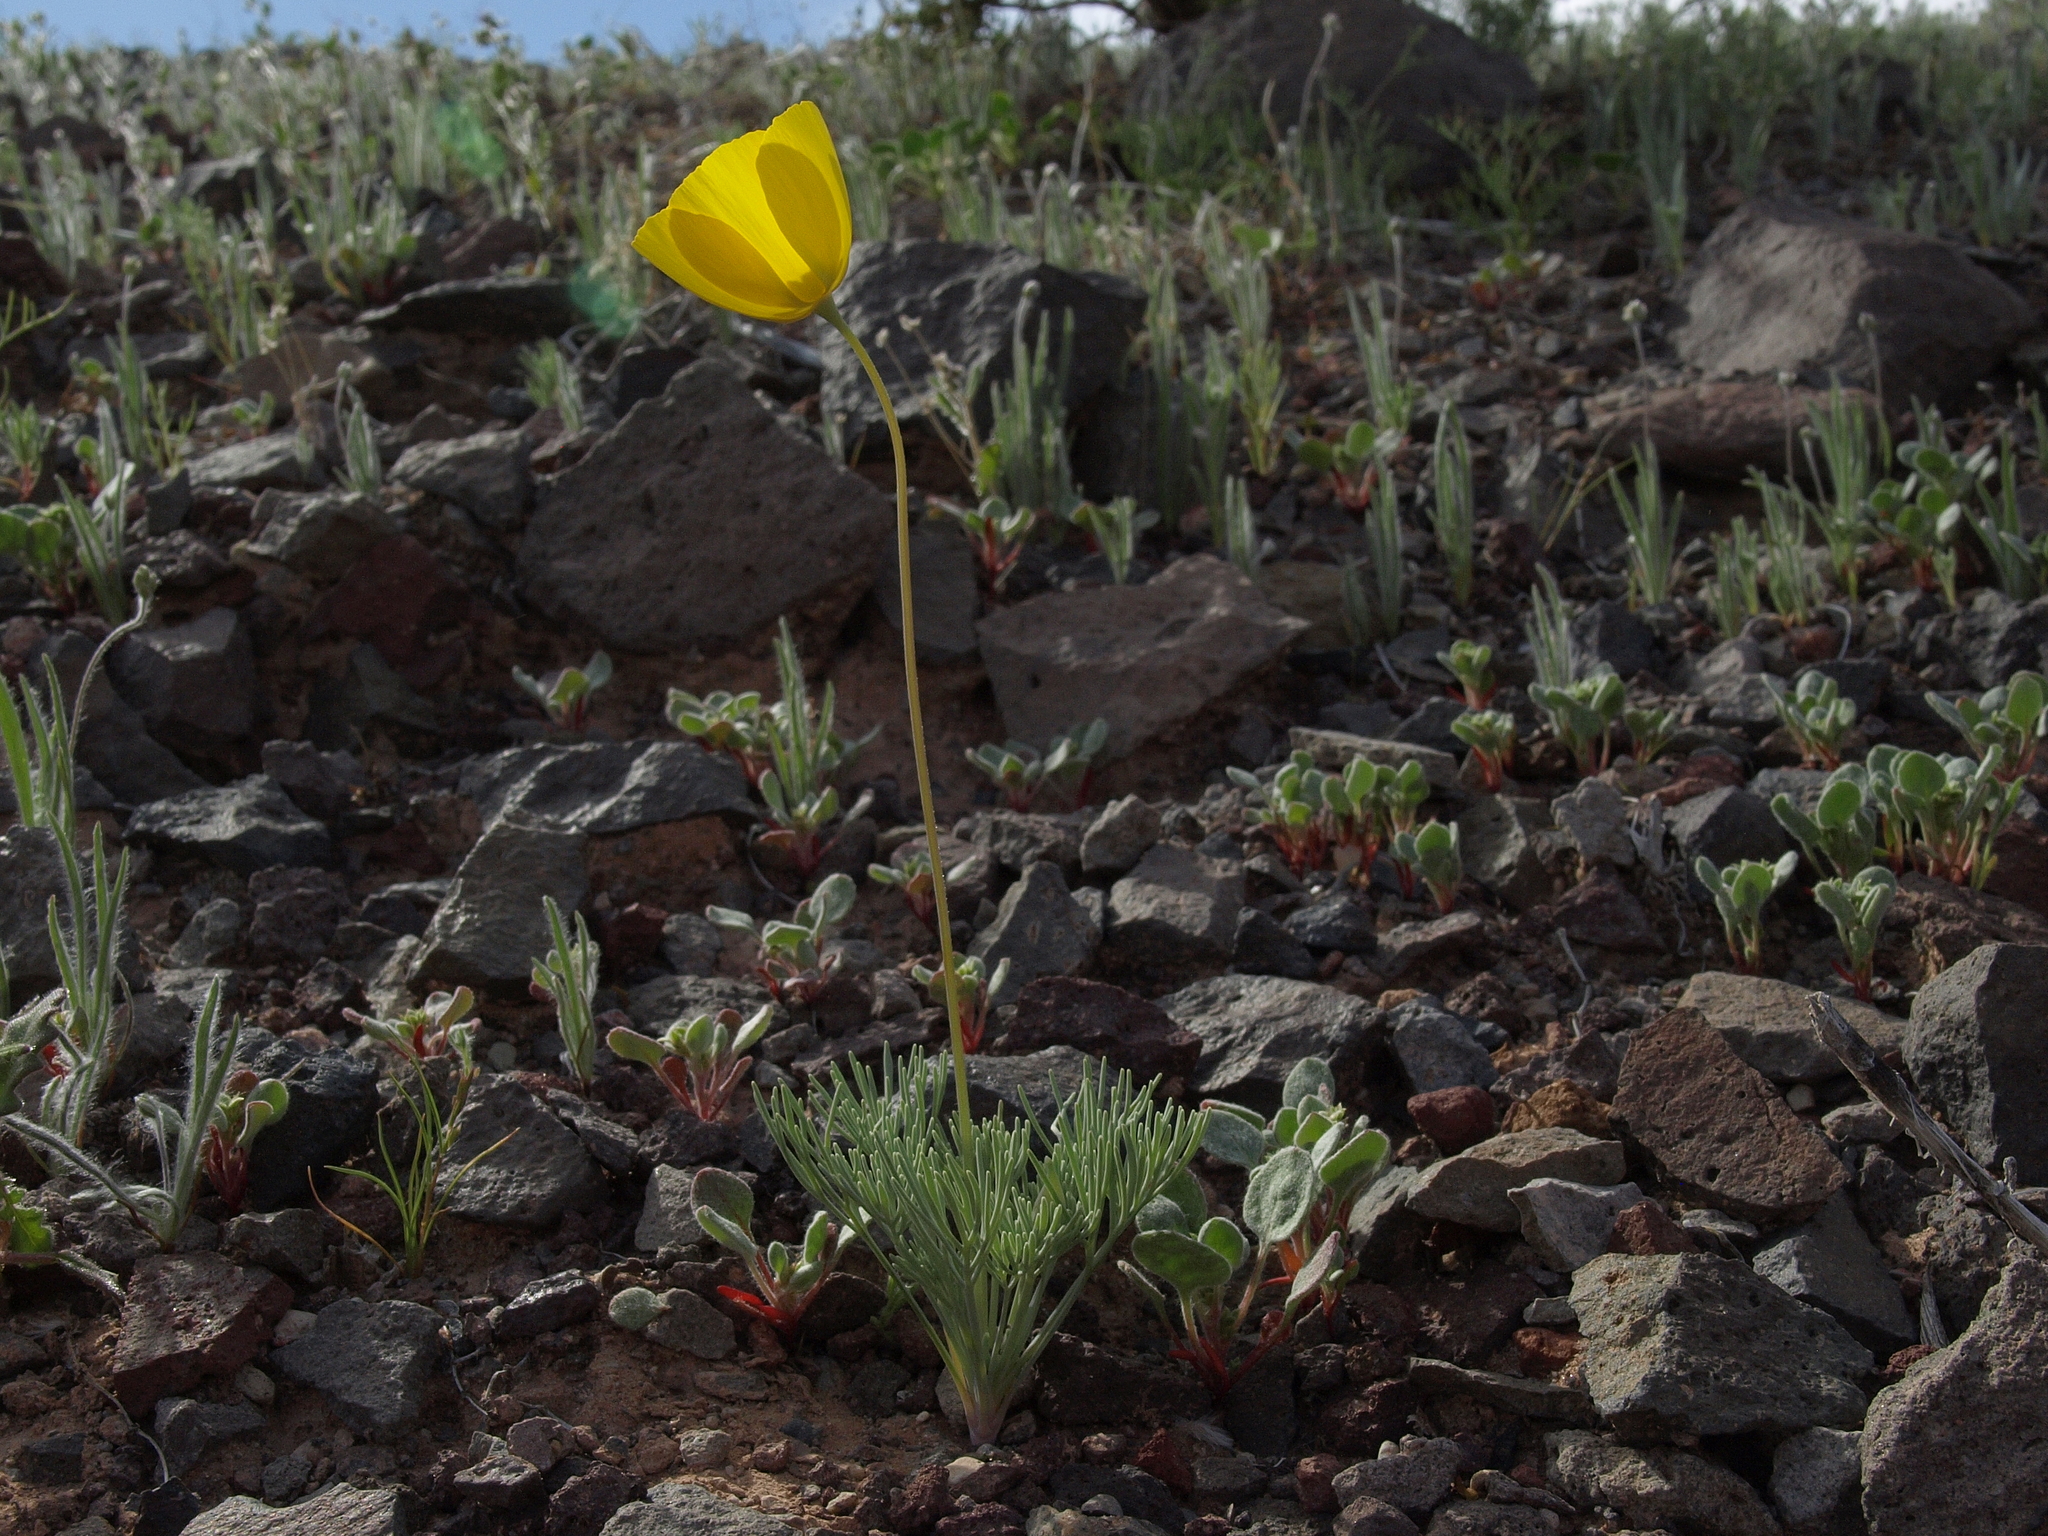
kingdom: Plantae
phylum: Tracheophyta
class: Magnoliopsida
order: Ranunculales
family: Papaveraceae
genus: Eschscholzia
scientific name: Eschscholzia glyptosperma
